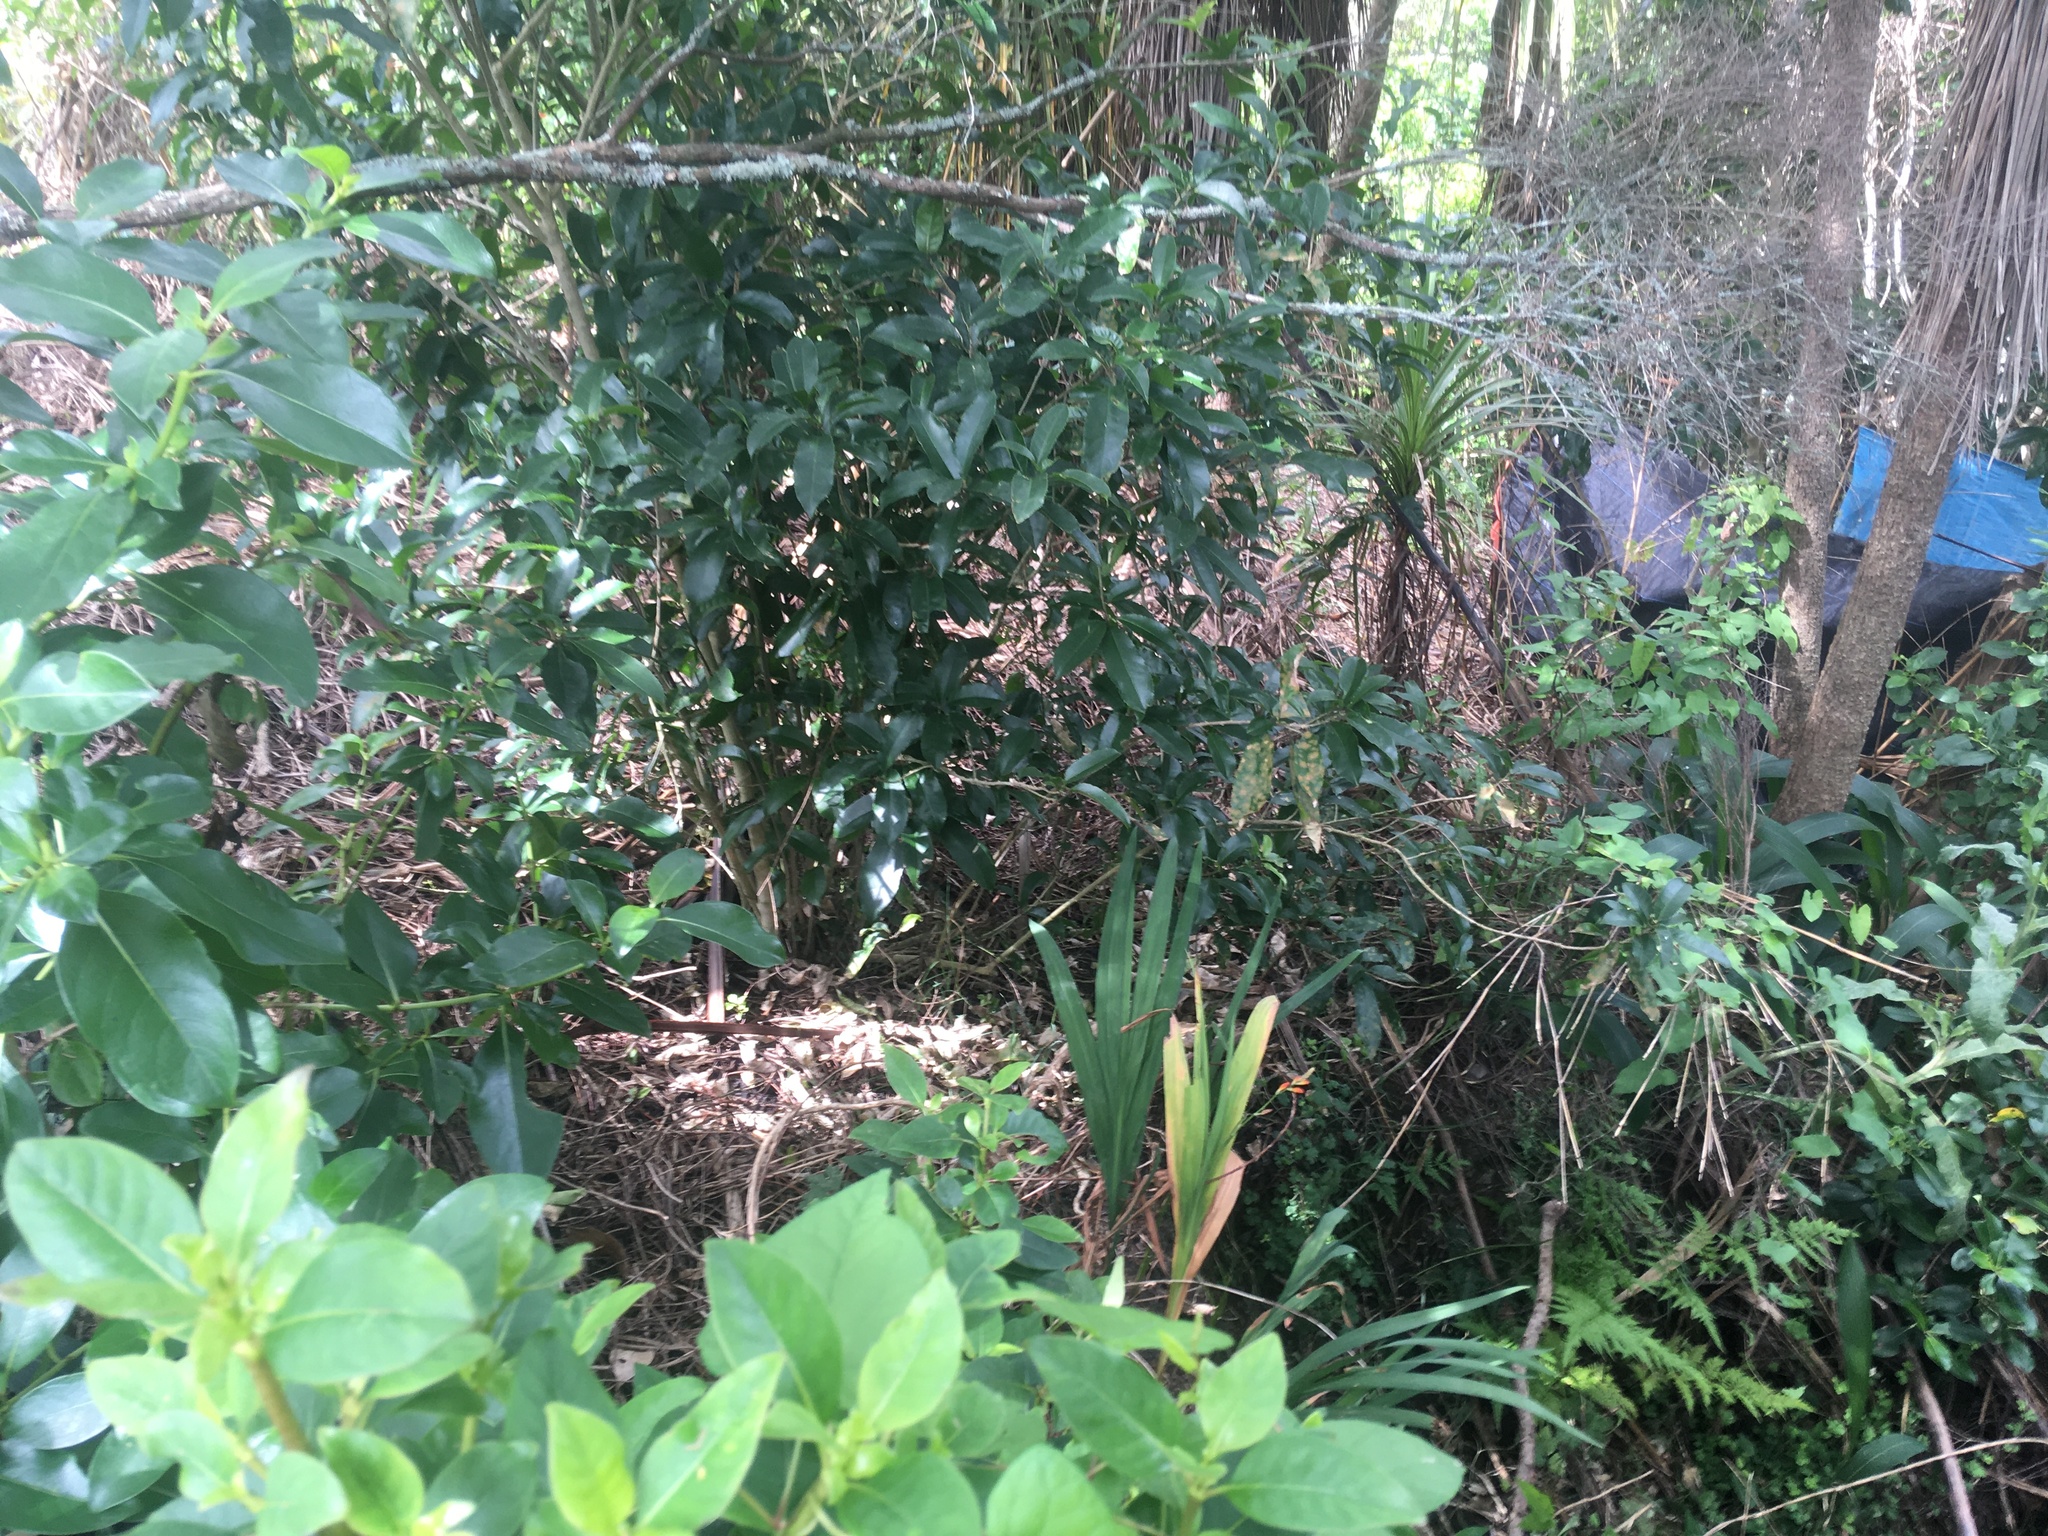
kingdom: Plantae
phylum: Tracheophyta
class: Magnoliopsida
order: Malpighiales
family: Violaceae
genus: Melicytus
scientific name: Melicytus ramiflorus
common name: Mahoe
